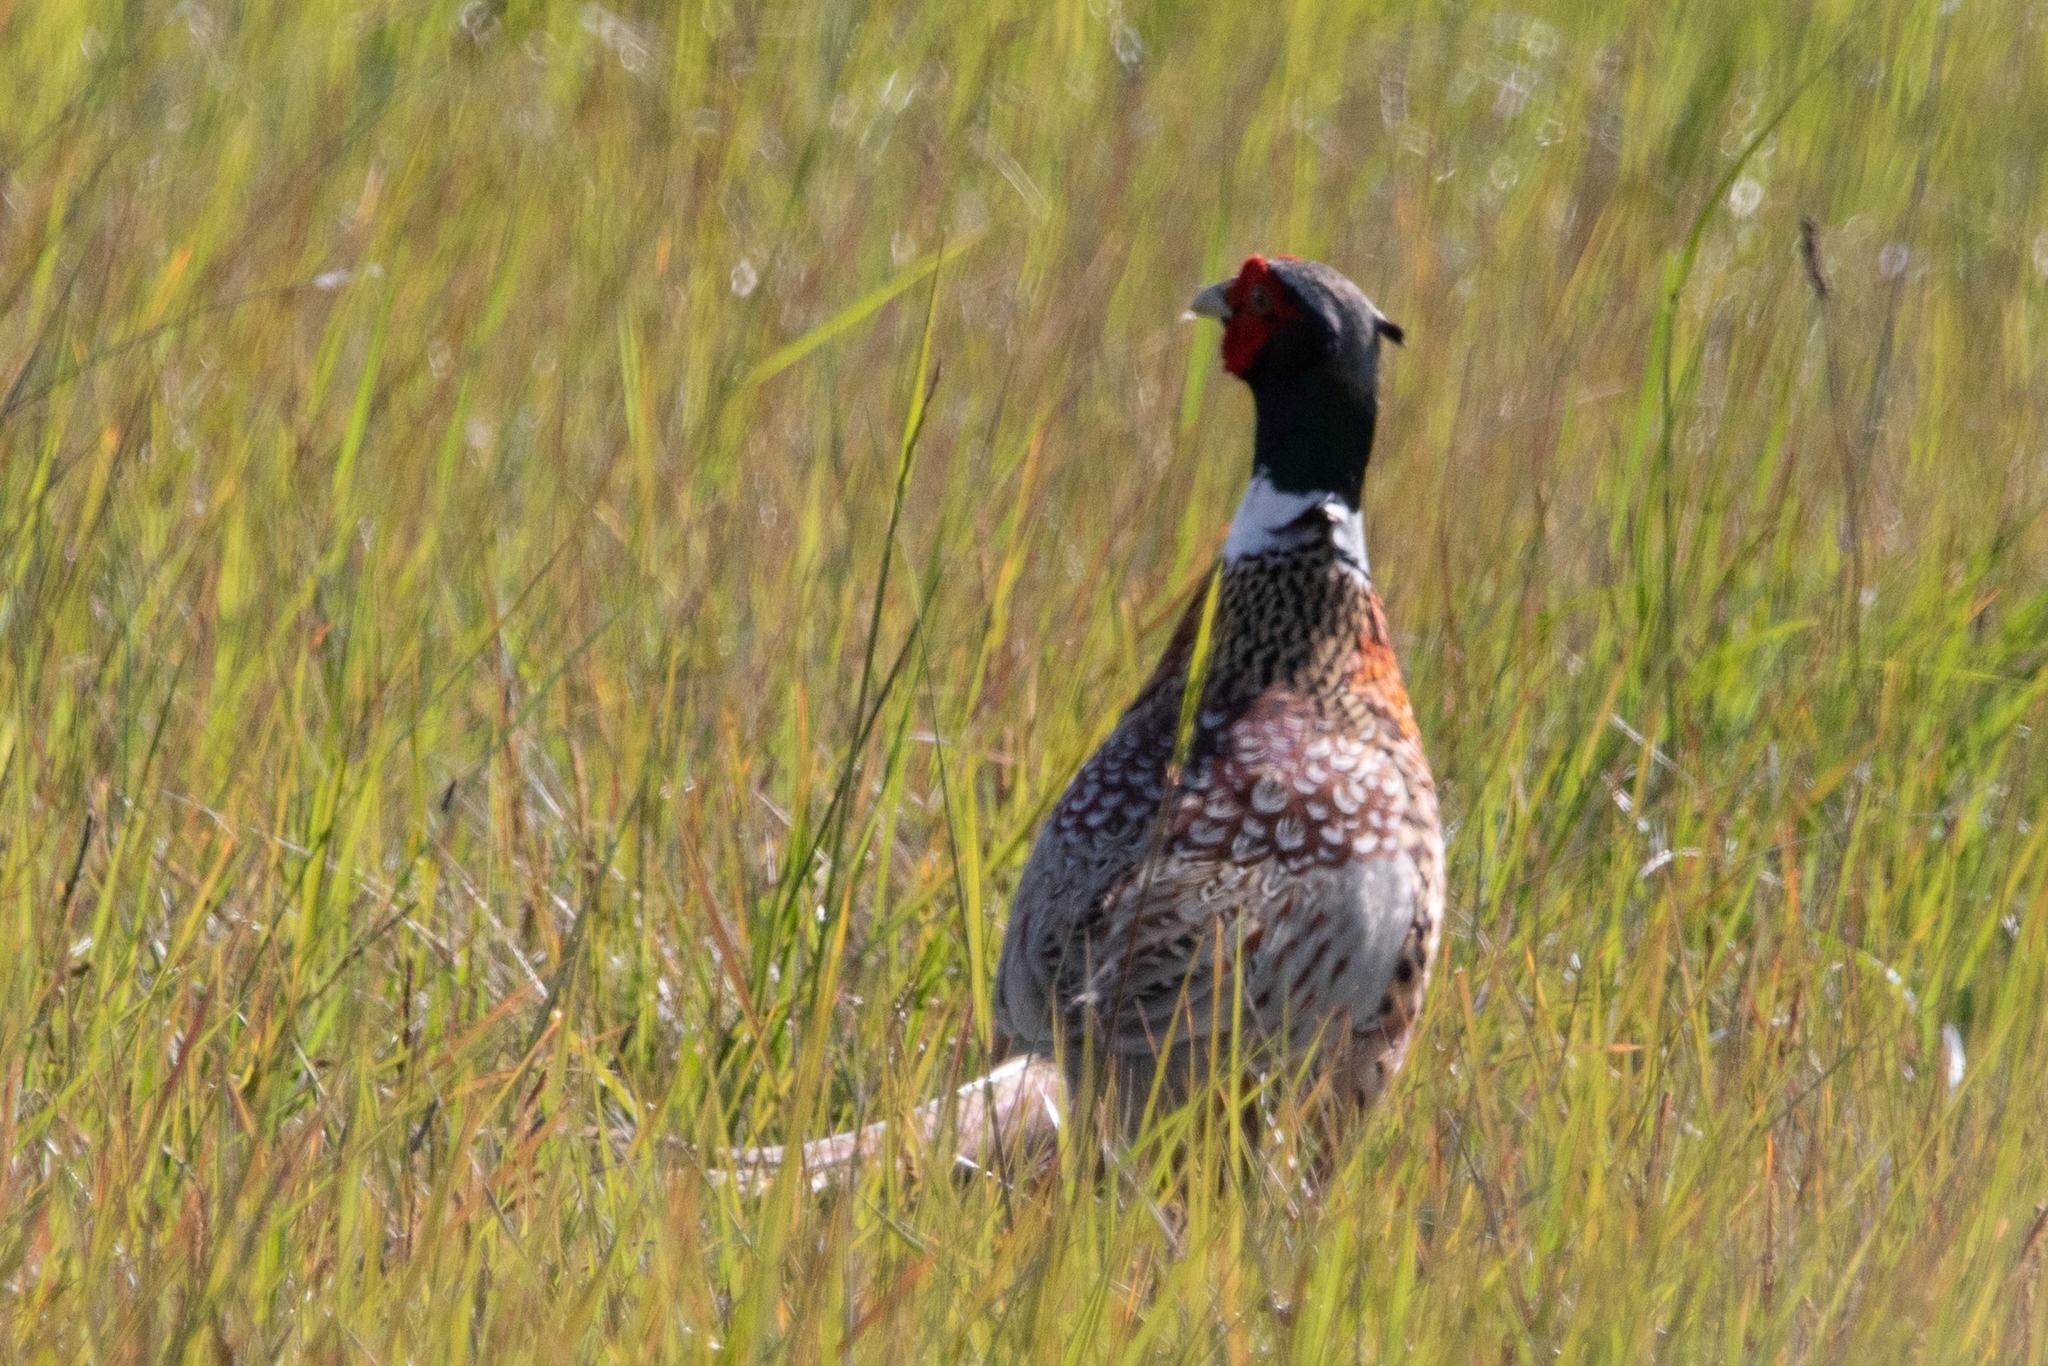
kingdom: Animalia
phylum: Chordata
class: Aves
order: Galliformes
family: Phasianidae
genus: Phasianus
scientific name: Phasianus colchicus
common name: Common pheasant
